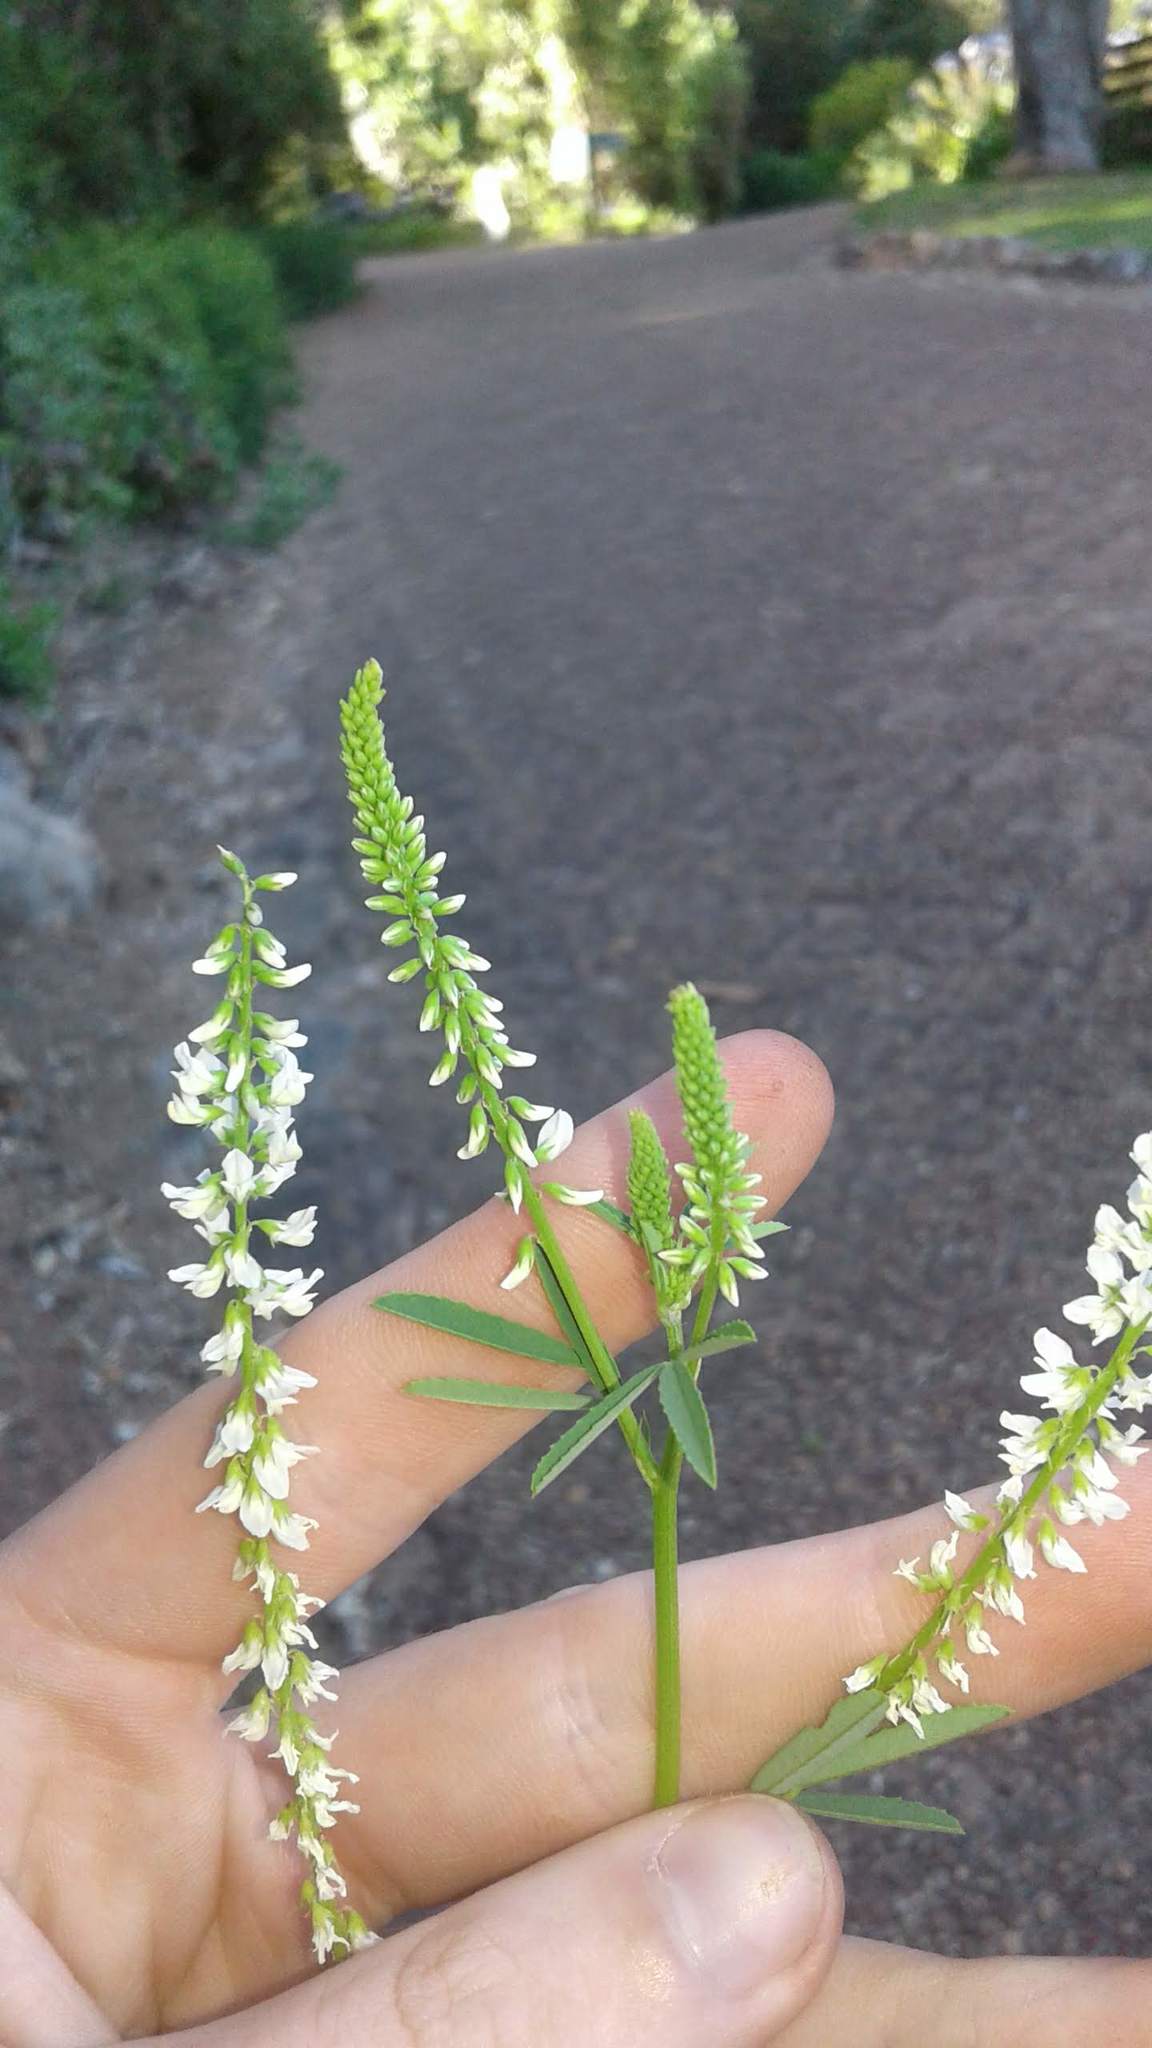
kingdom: Plantae
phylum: Tracheophyta
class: Magnoliopsida
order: Fabales
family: Fabaceae
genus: Melilotus
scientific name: Melilotus albus
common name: White melilot
